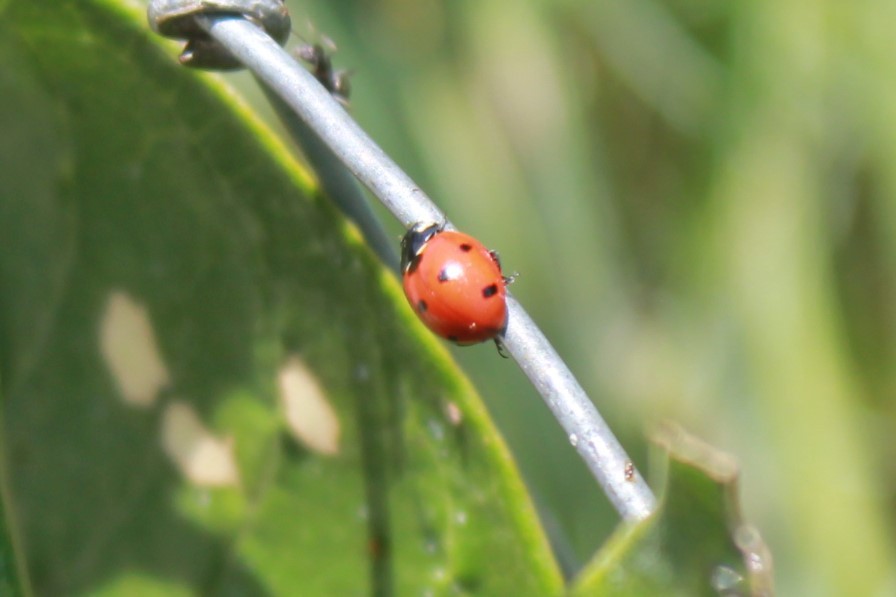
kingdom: Animalia
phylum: Arthropoda
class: Insecta
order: Coleoptera
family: Coccinellidae
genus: Coccinella
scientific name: Coccinella septempunctata
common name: Sevenspotted lady beetle
